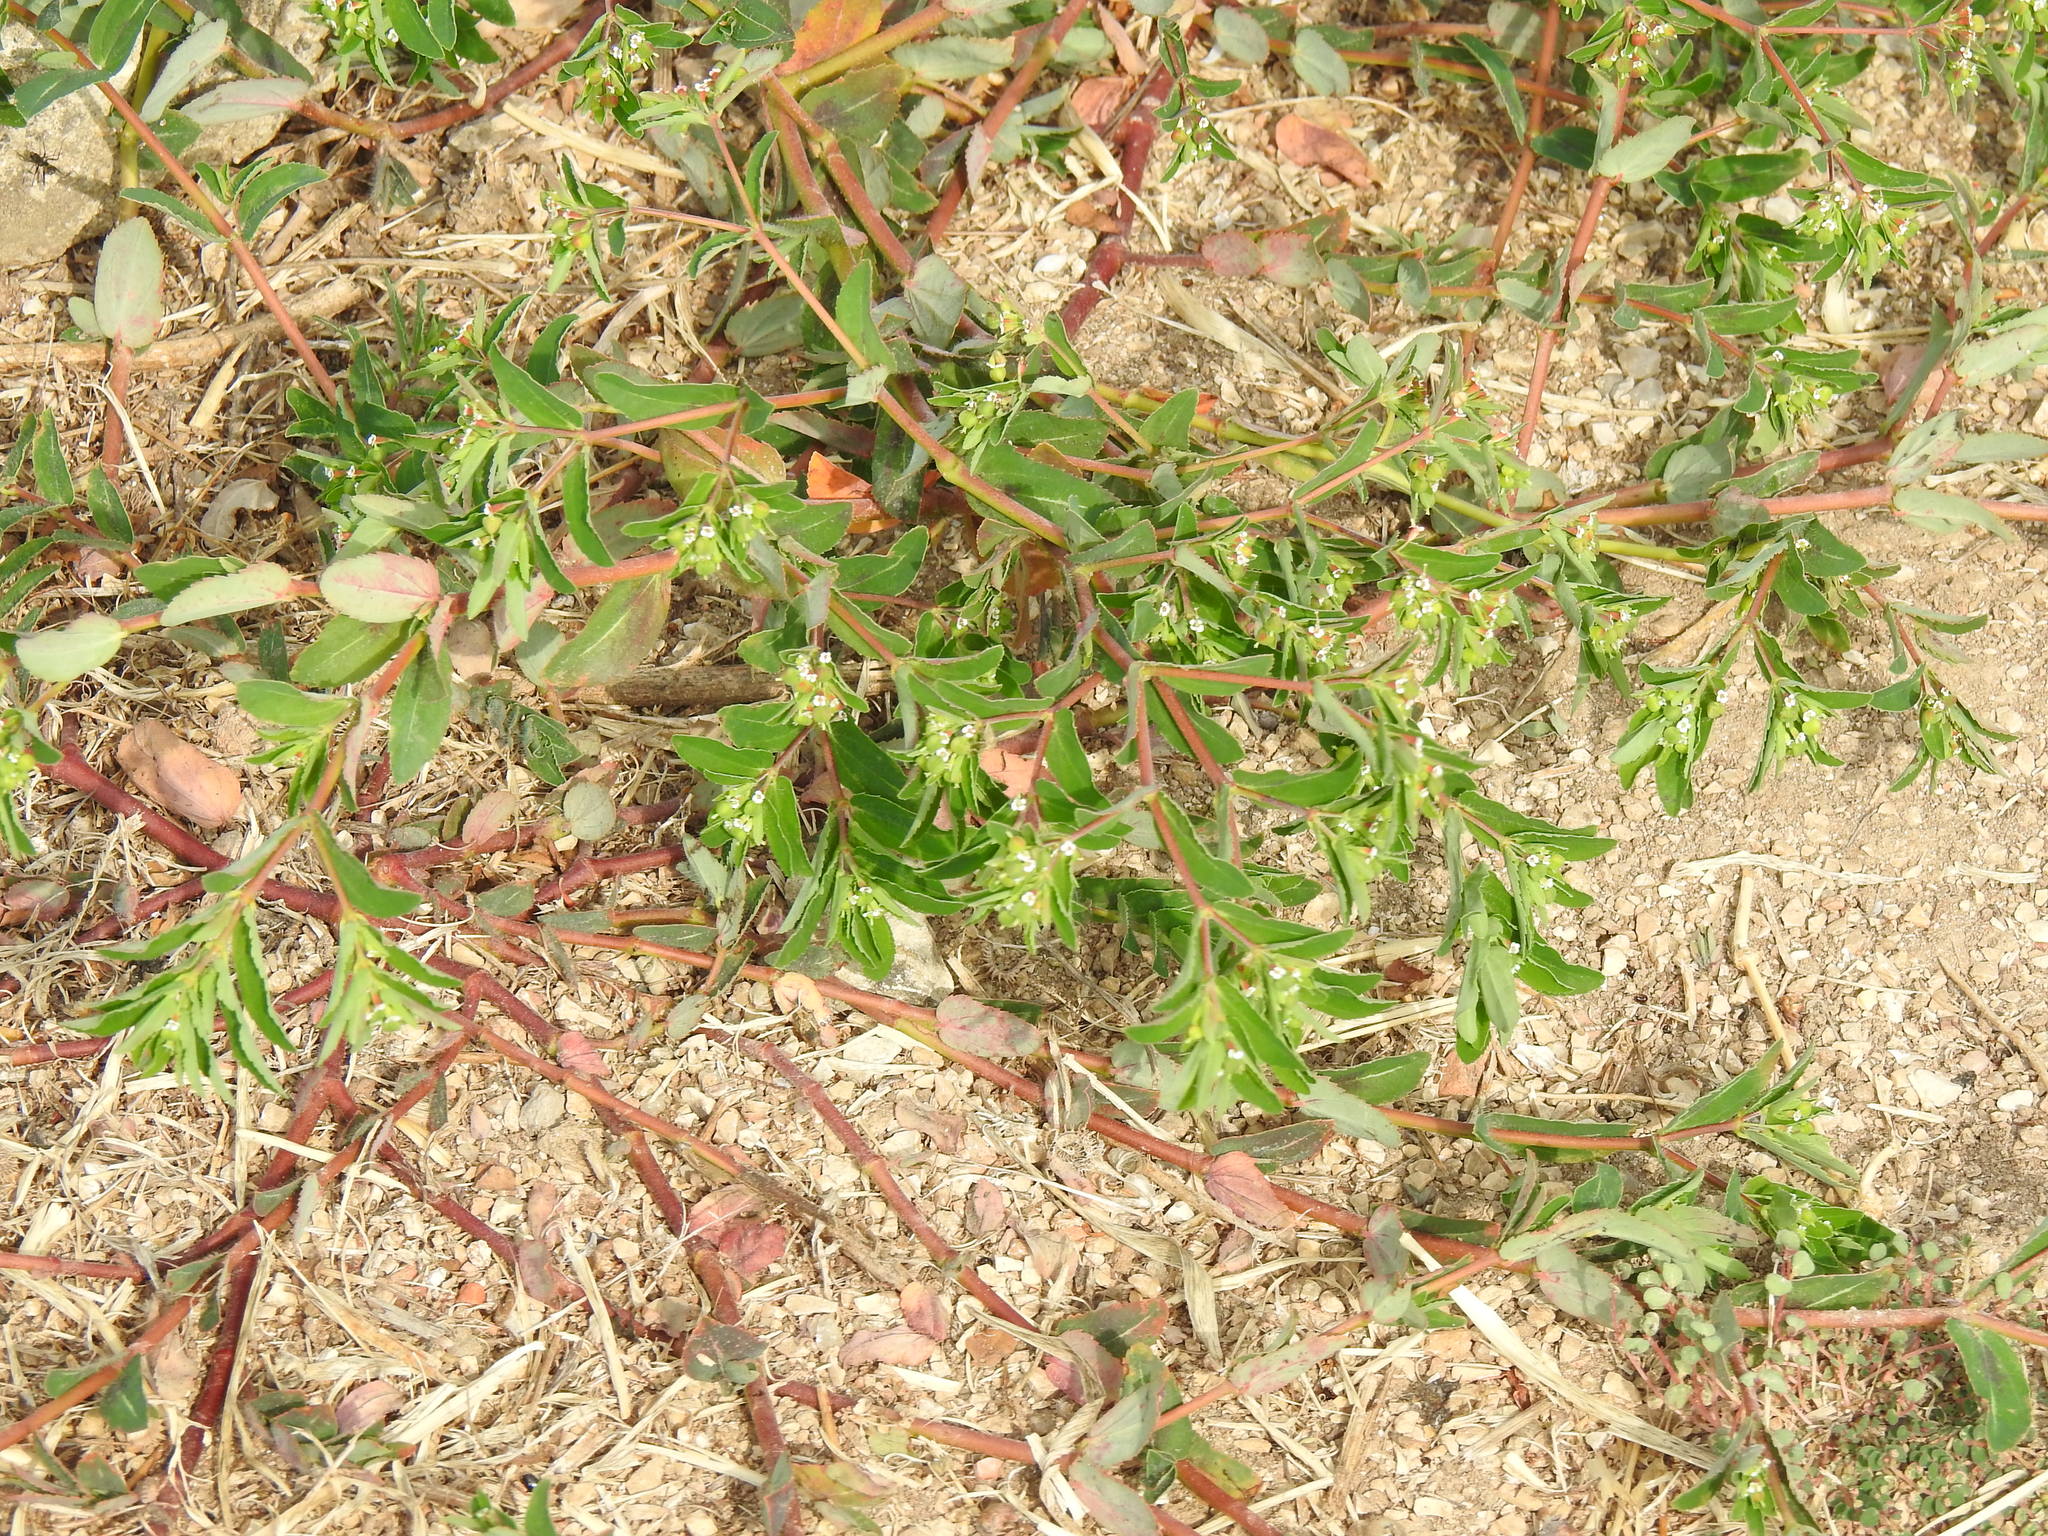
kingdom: Plantae
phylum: Tracheophyta
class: Magnoliopsida
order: Malpighiales
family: Euphorbiaceae
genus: Euphorbia
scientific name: Euphorbia nutans
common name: Eyebane
